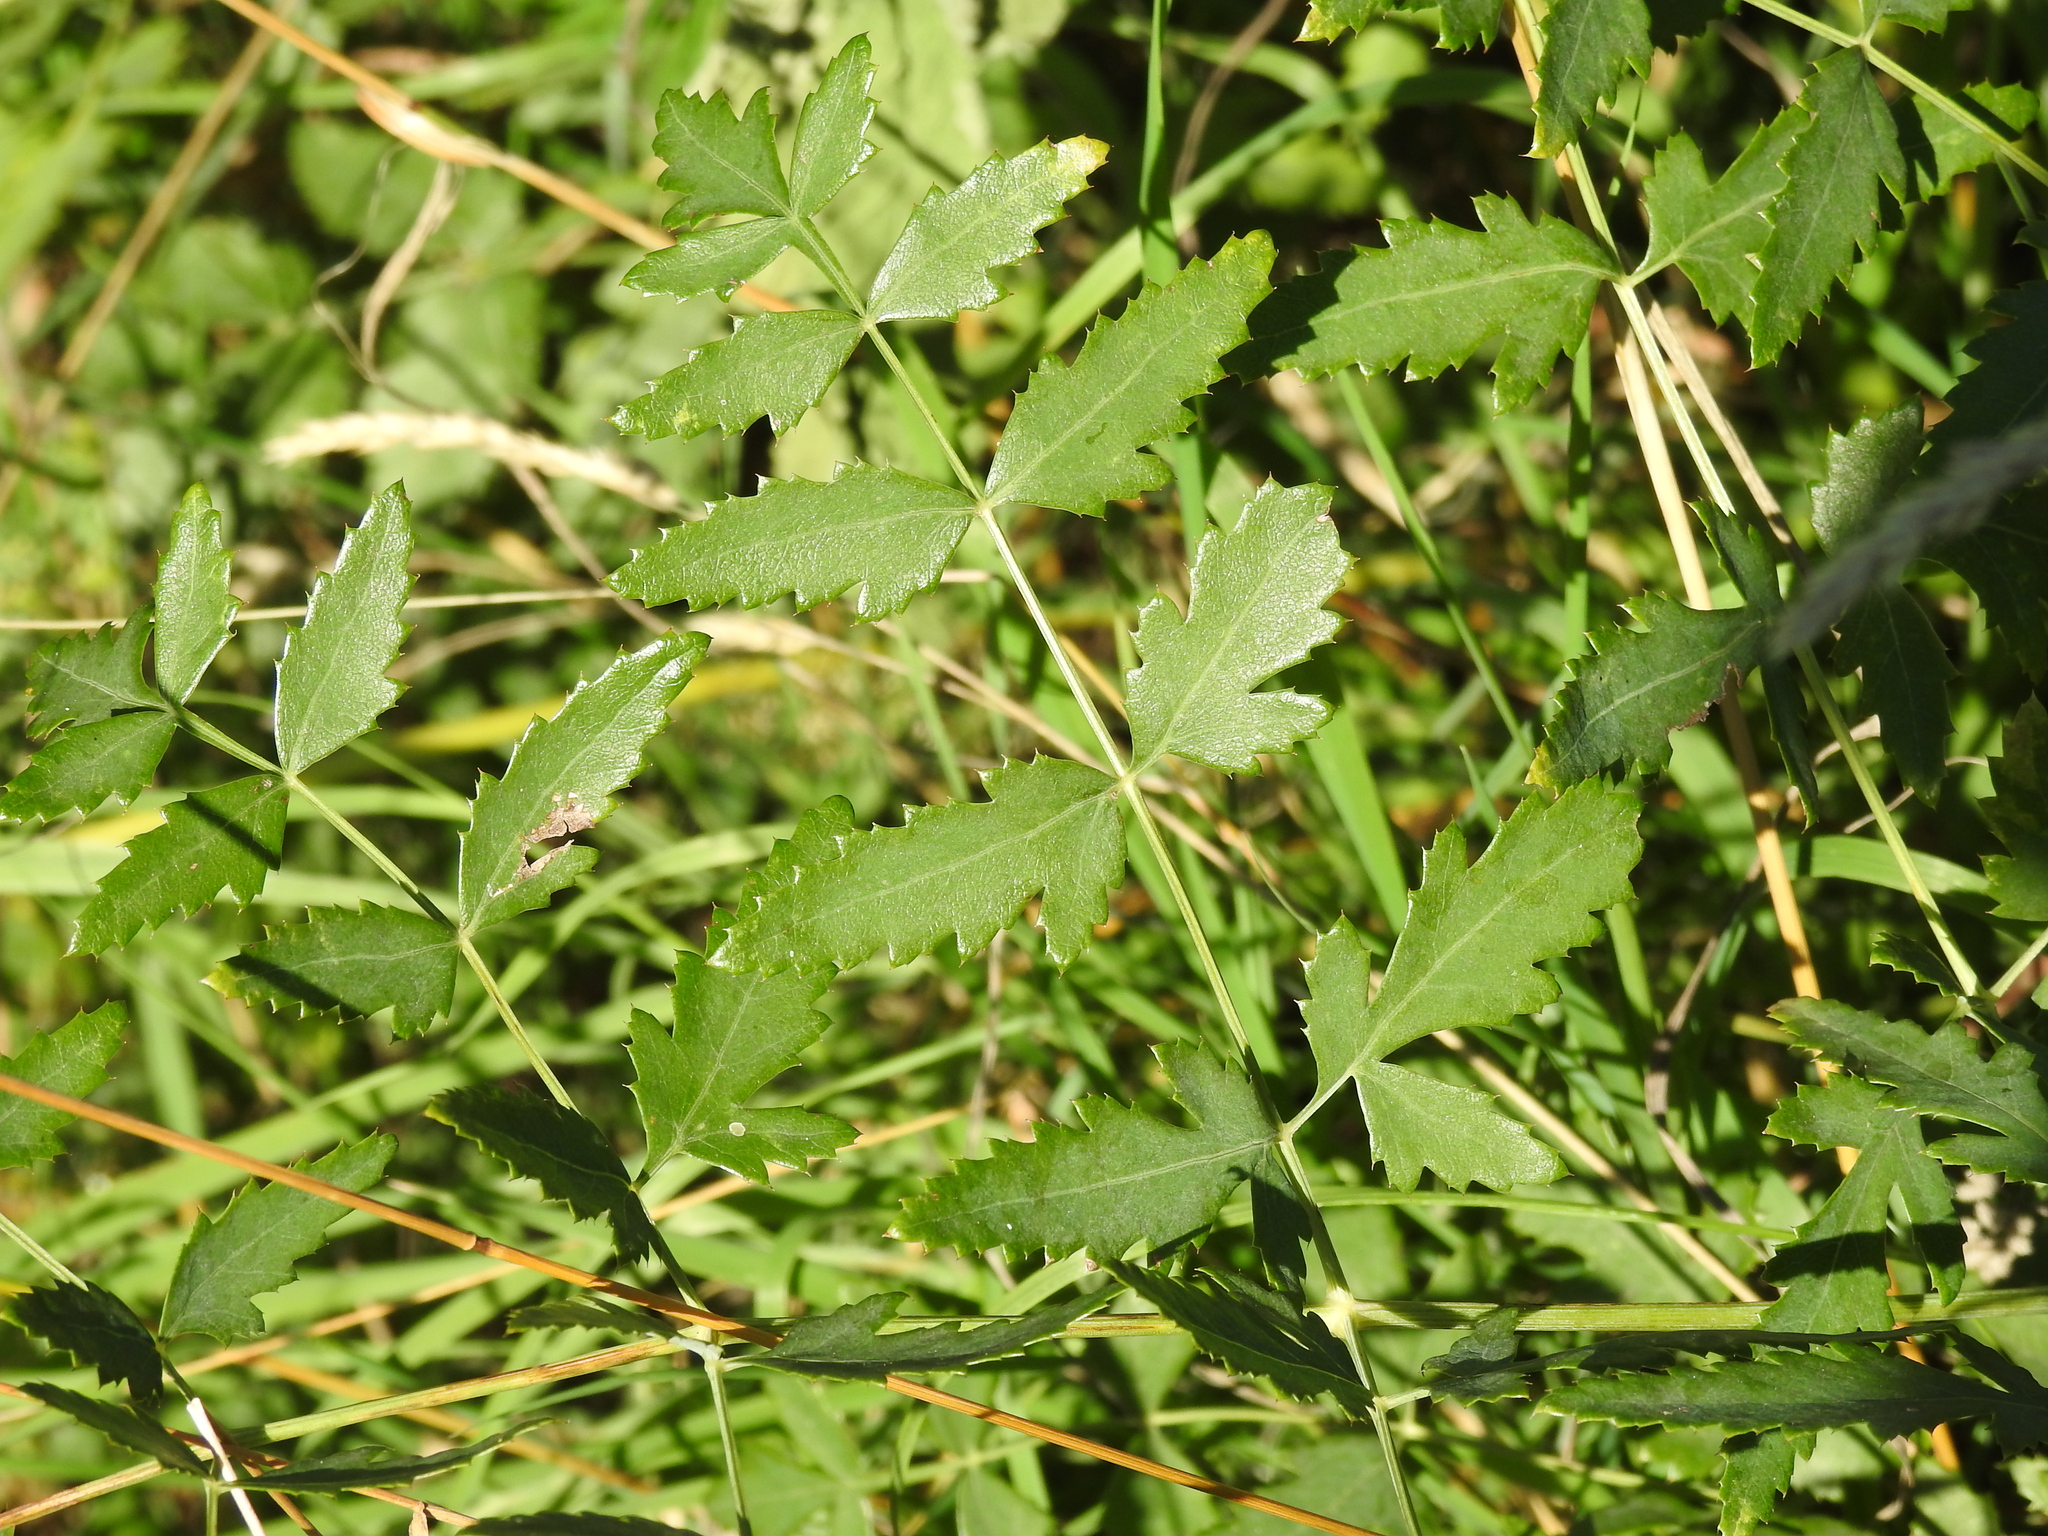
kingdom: Plantae
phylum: Tracheophyta
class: Magnoliopsida
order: Apiales
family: Apiaceae
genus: Cervaria
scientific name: Cervaria rivini
